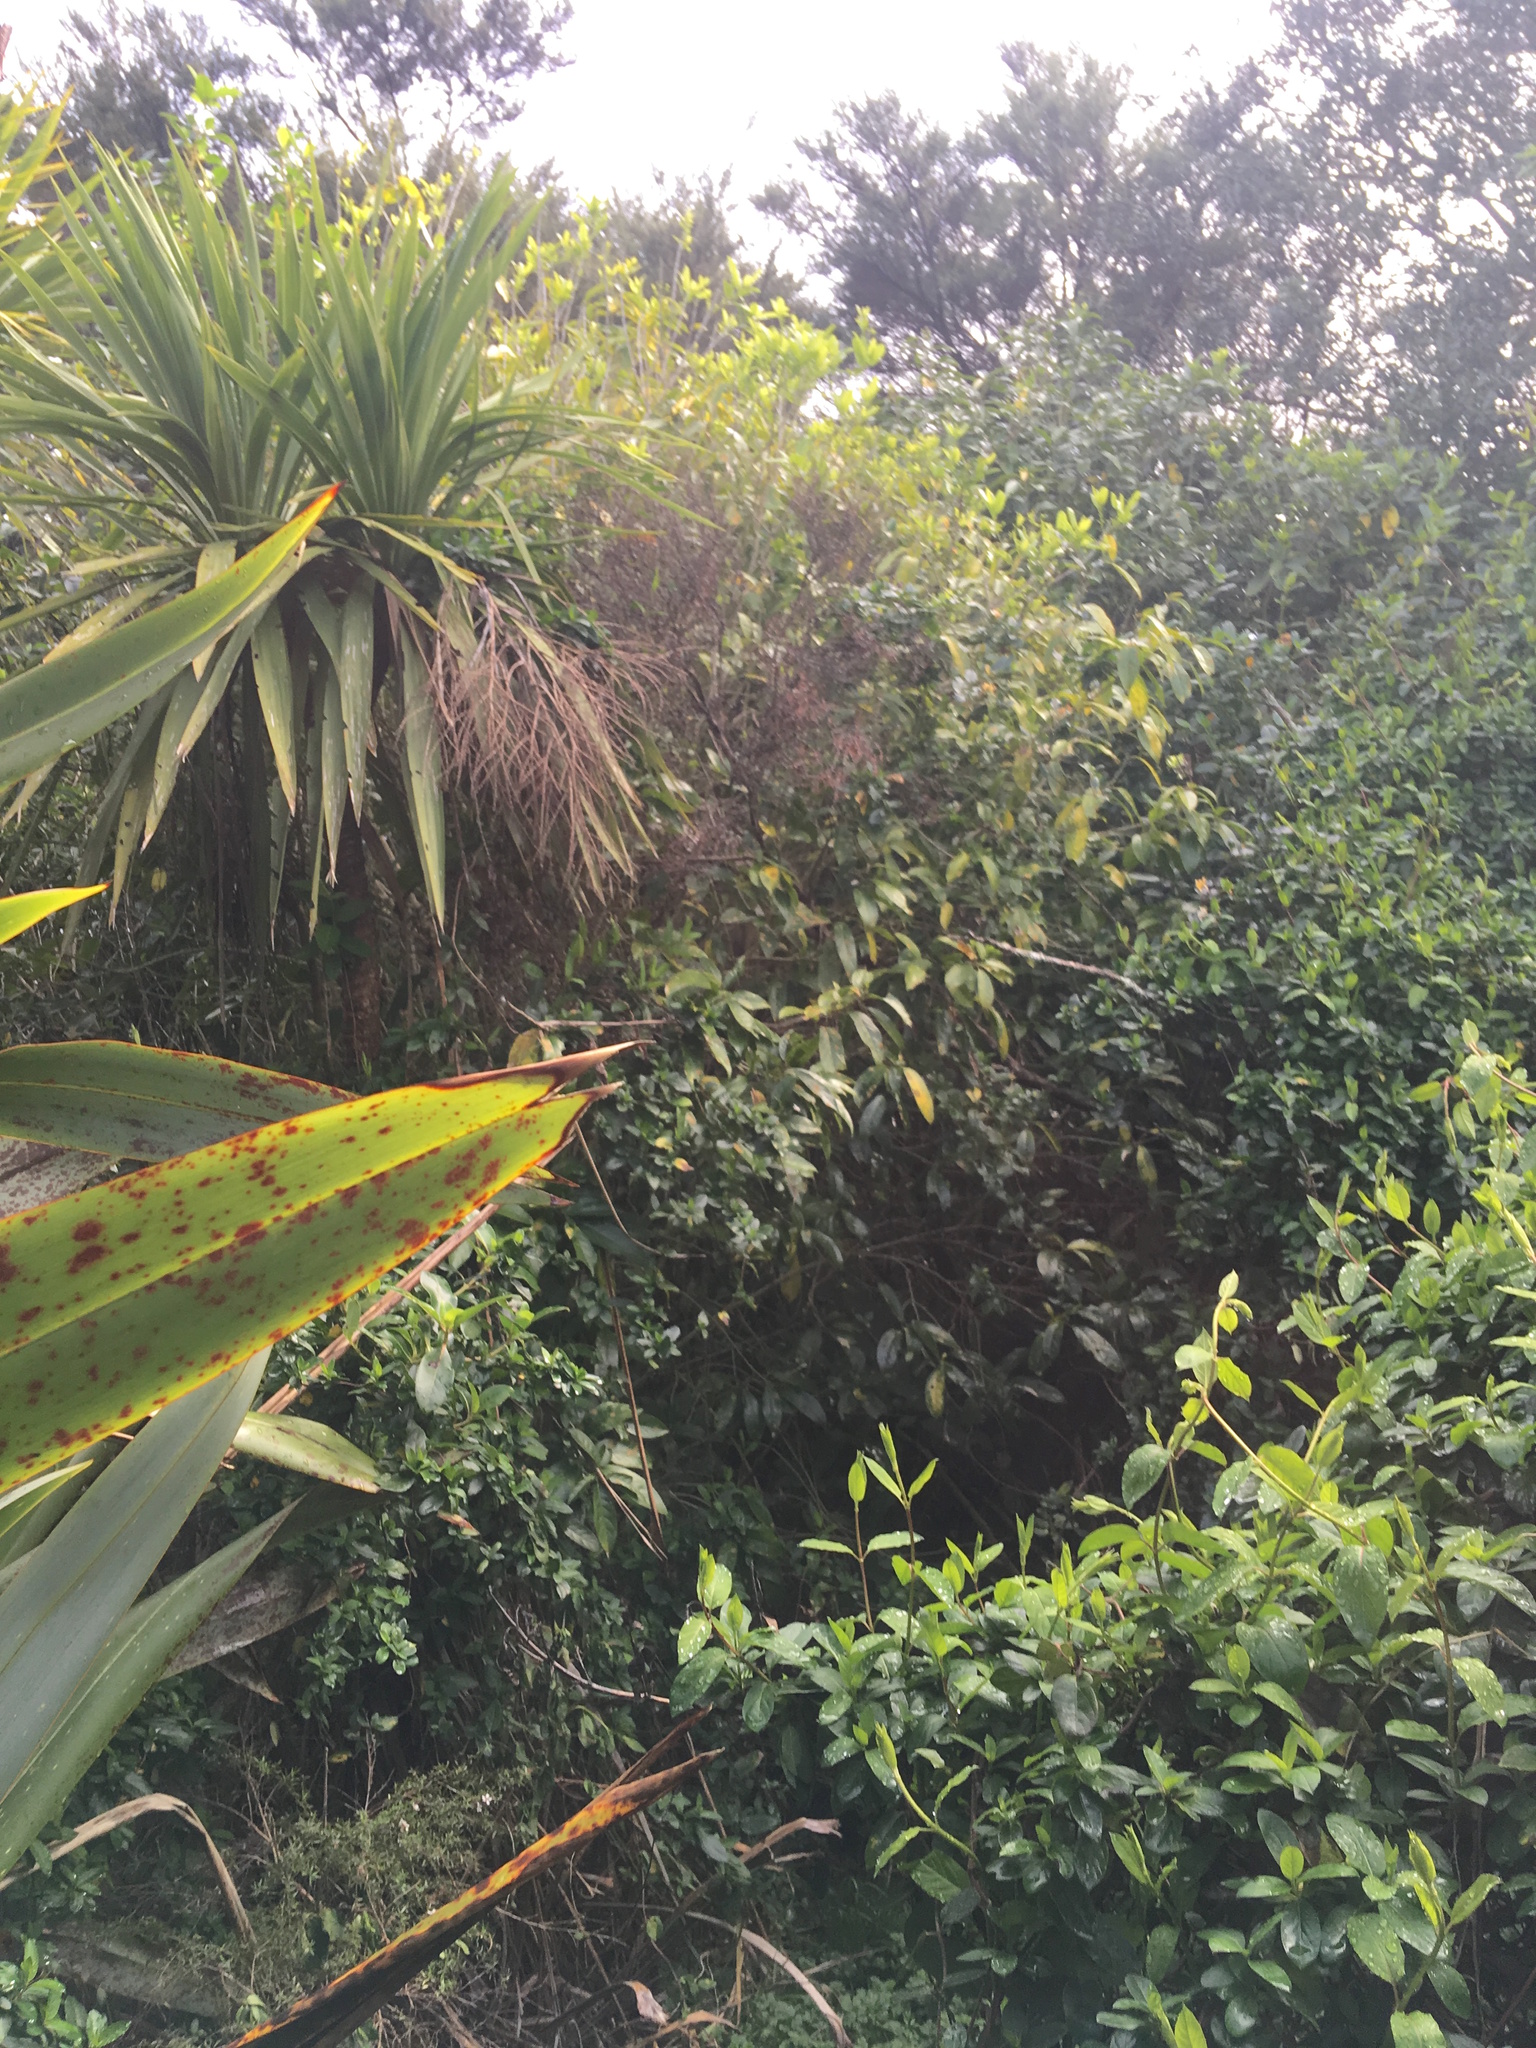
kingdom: Plantae
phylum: Tracheophyta
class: Magnoliopsida
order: Malpighiales
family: Violaceae
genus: Melicytus
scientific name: Melicytus ramiflorus
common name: Mahoe
